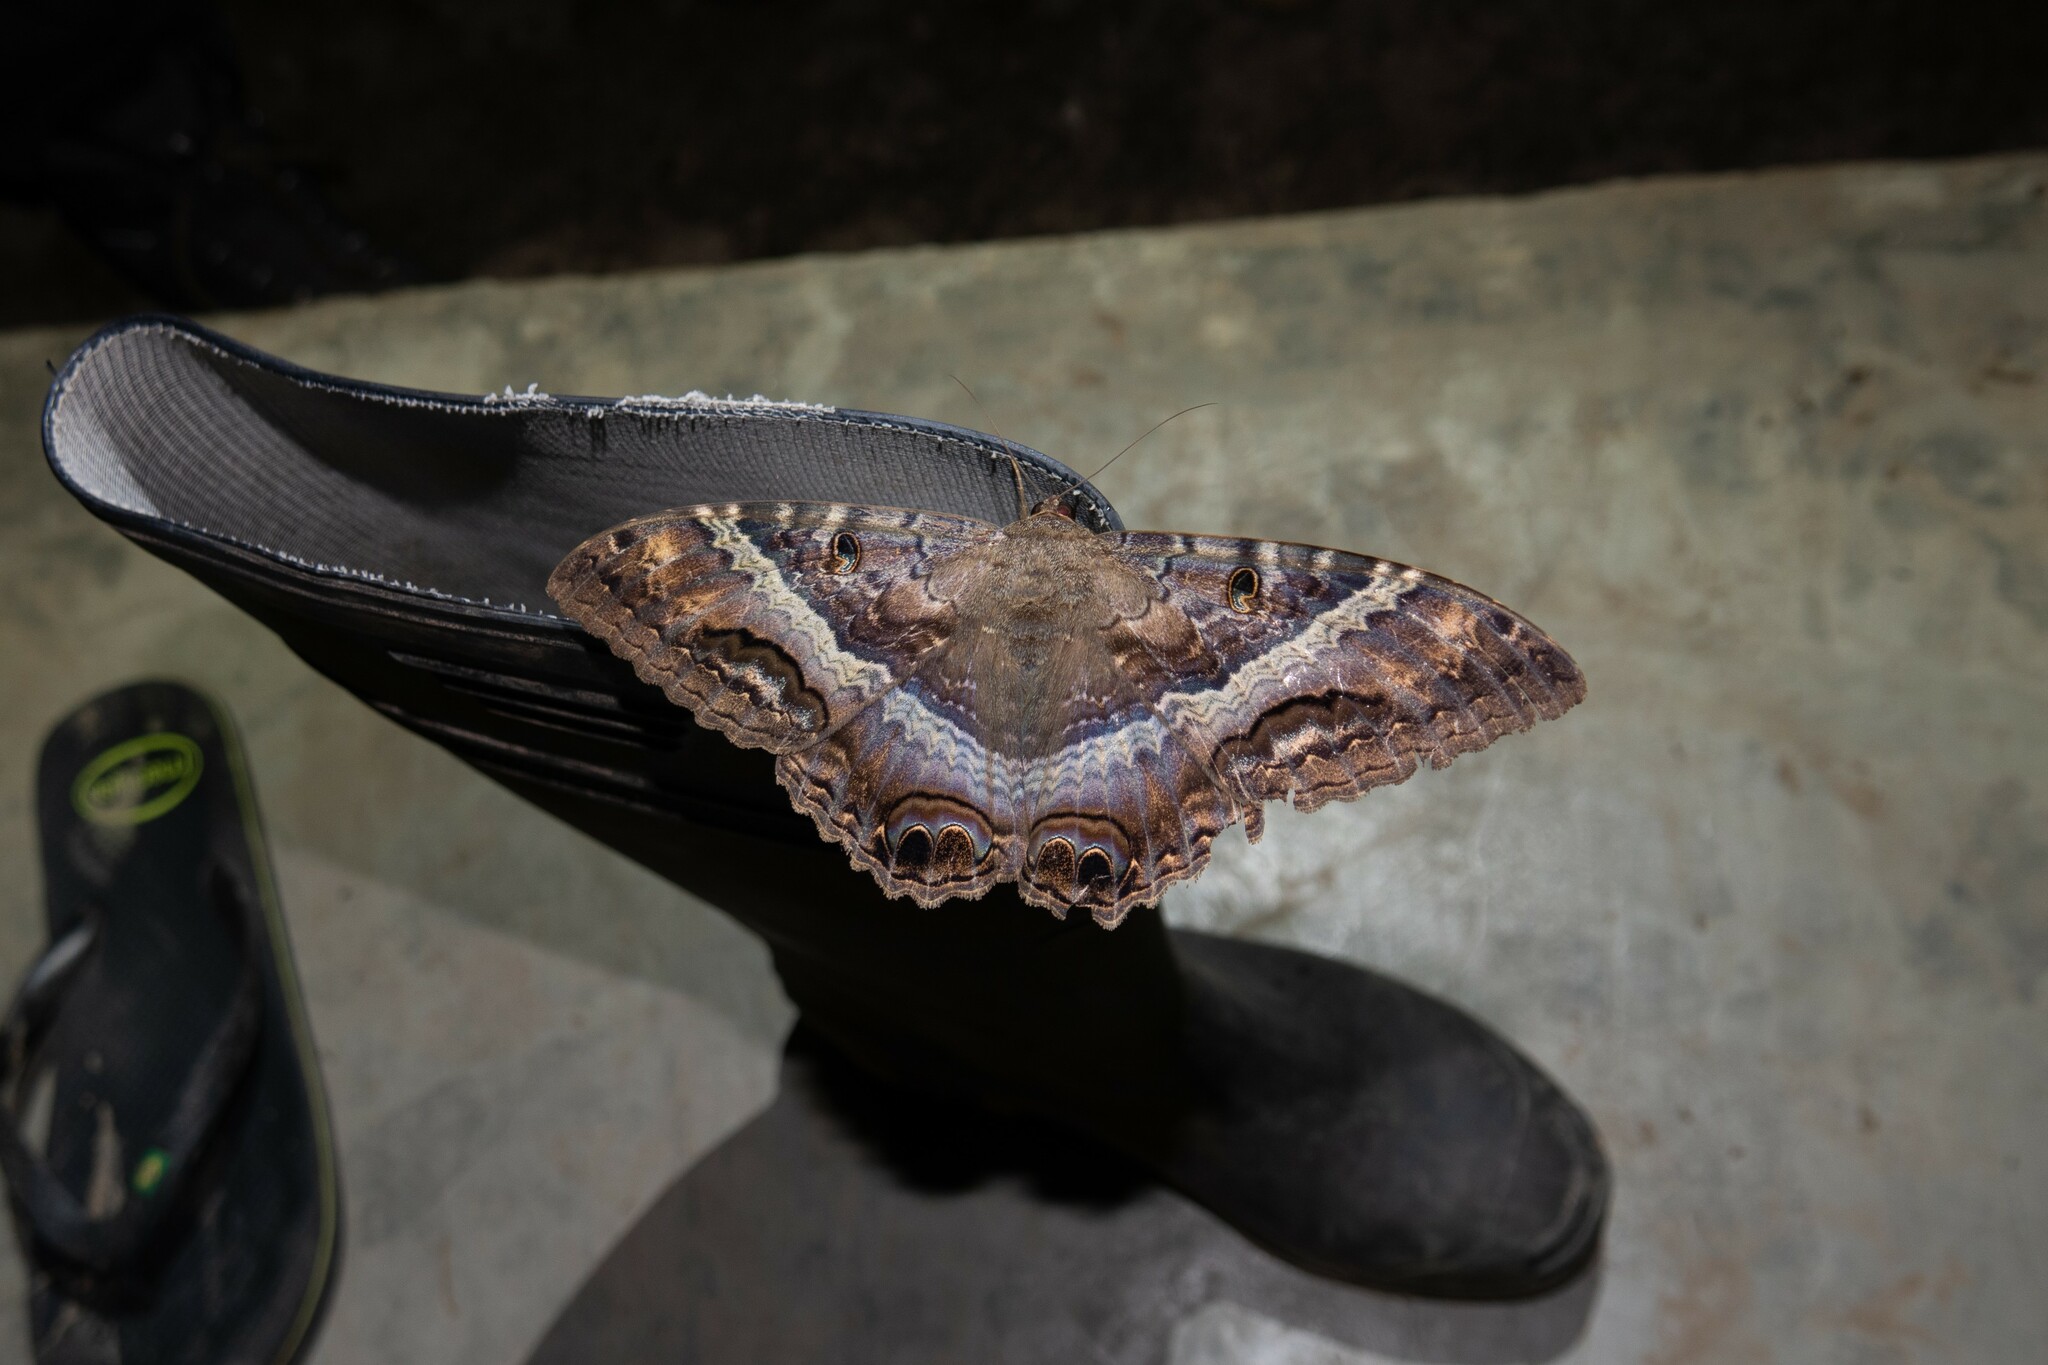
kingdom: Animalia
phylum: Arthropoda
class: Insecta
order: Lepidoptera
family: Erebidae
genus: Ascalapha
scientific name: Ascalapha odorata
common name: Black witch
